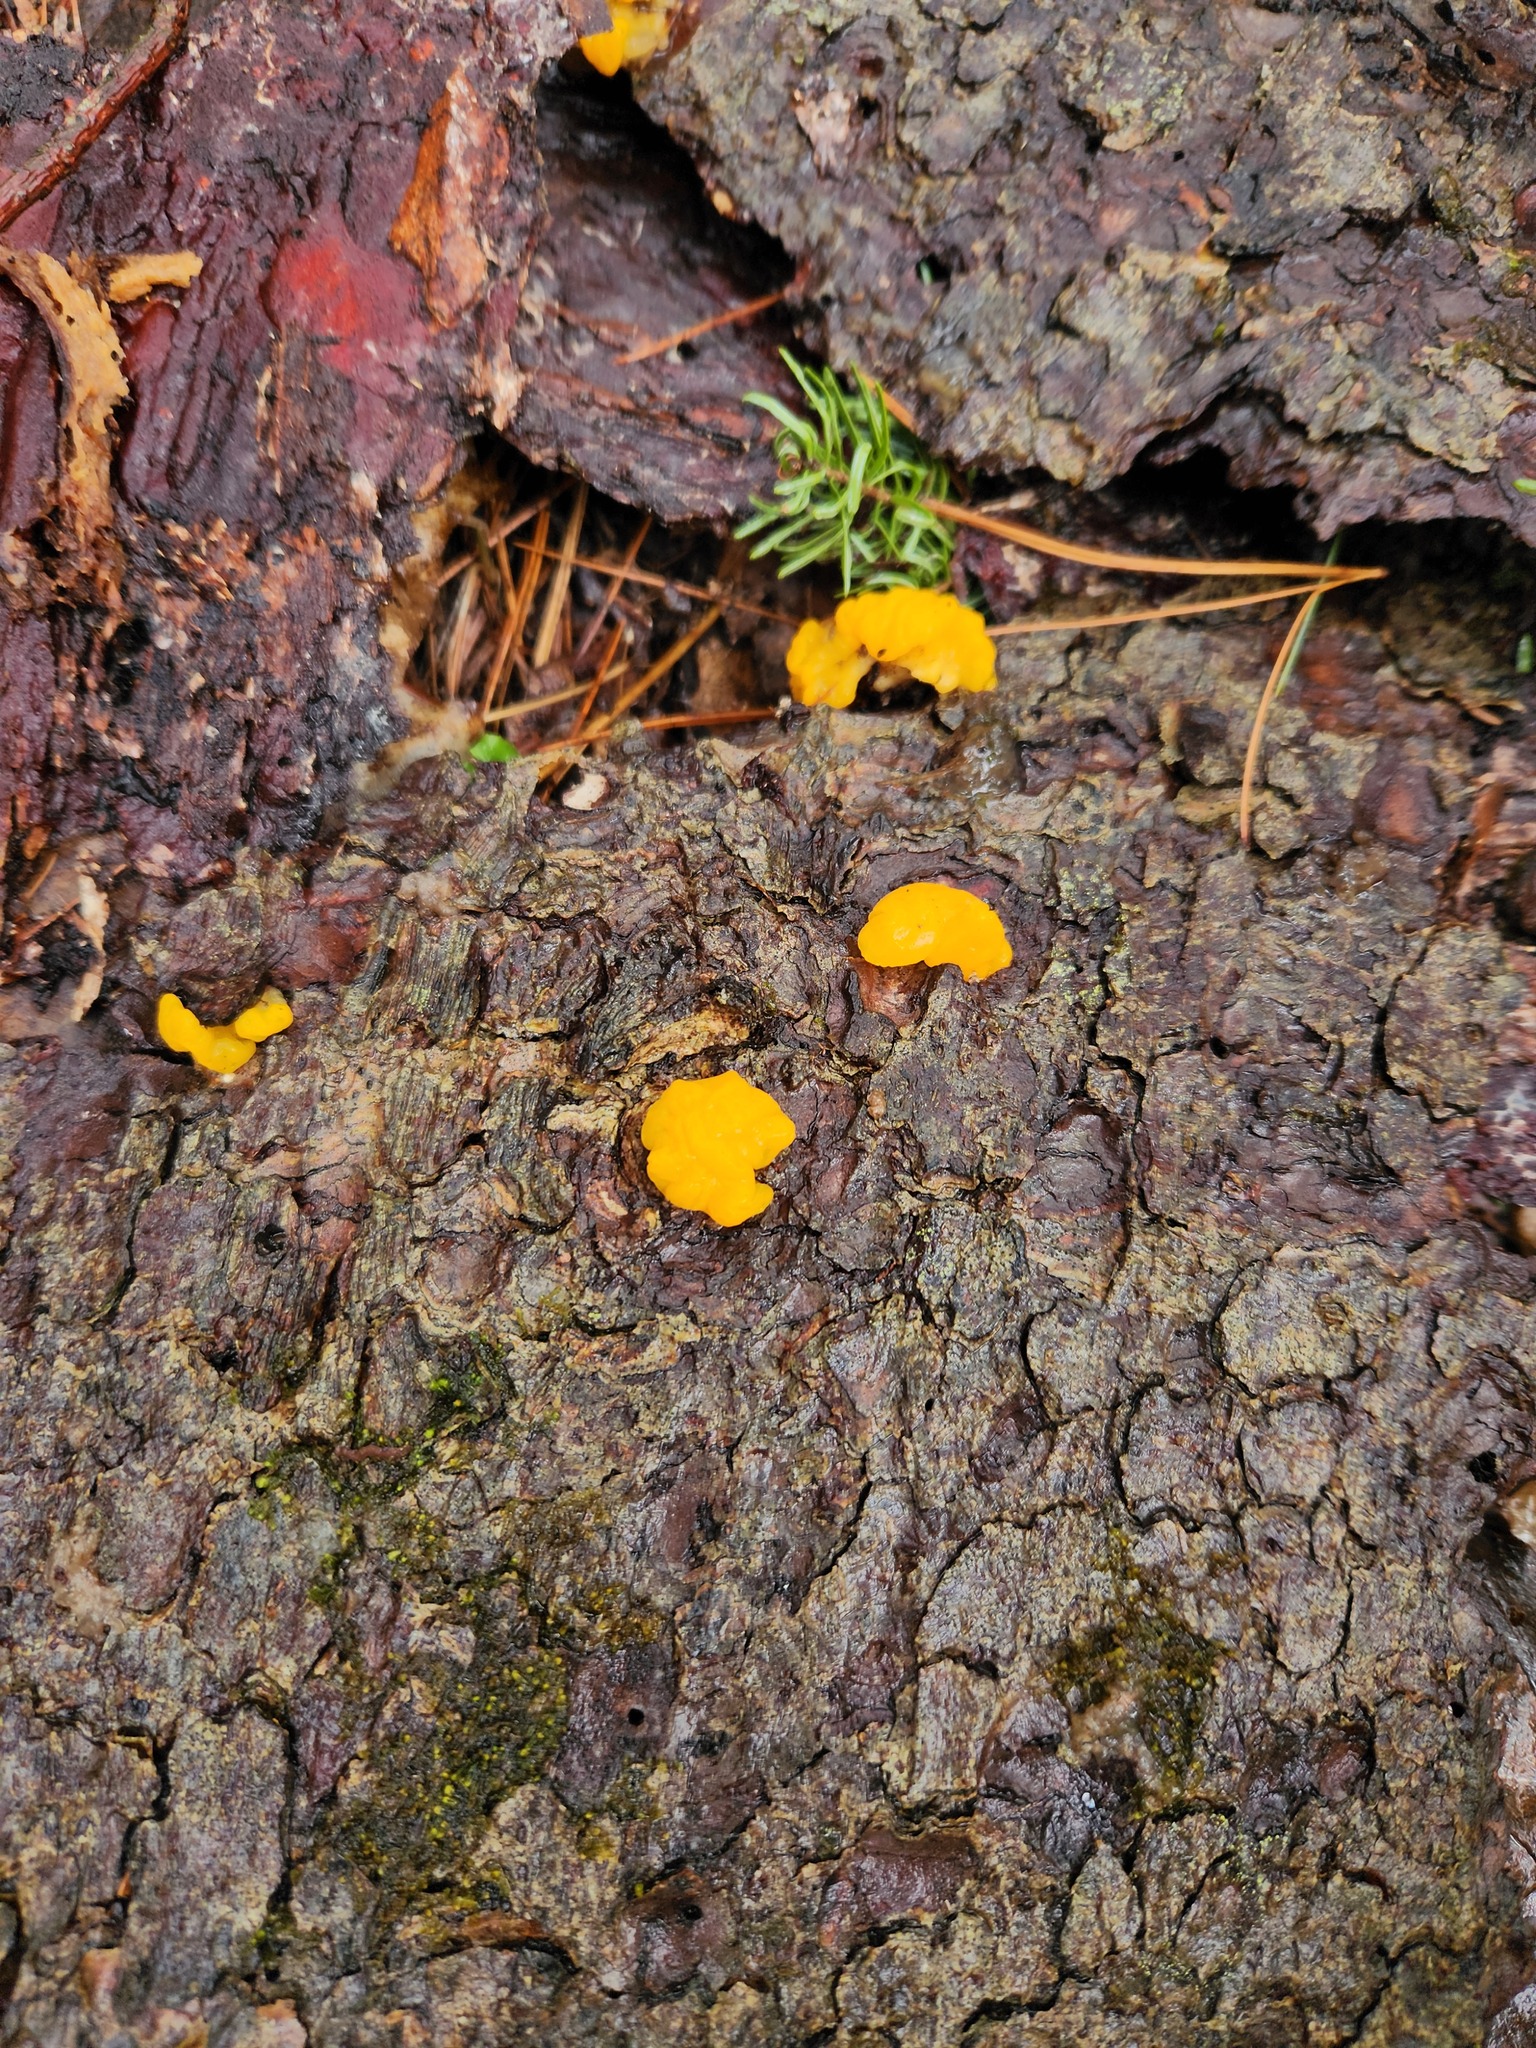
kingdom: Fungi
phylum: Basidiomycota
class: Dacrymycetes
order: Dacrymycetales
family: Dacrymycetaceae
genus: Dacrymyces
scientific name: Dacrymyces chrysospermus
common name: Orange jelly spot
